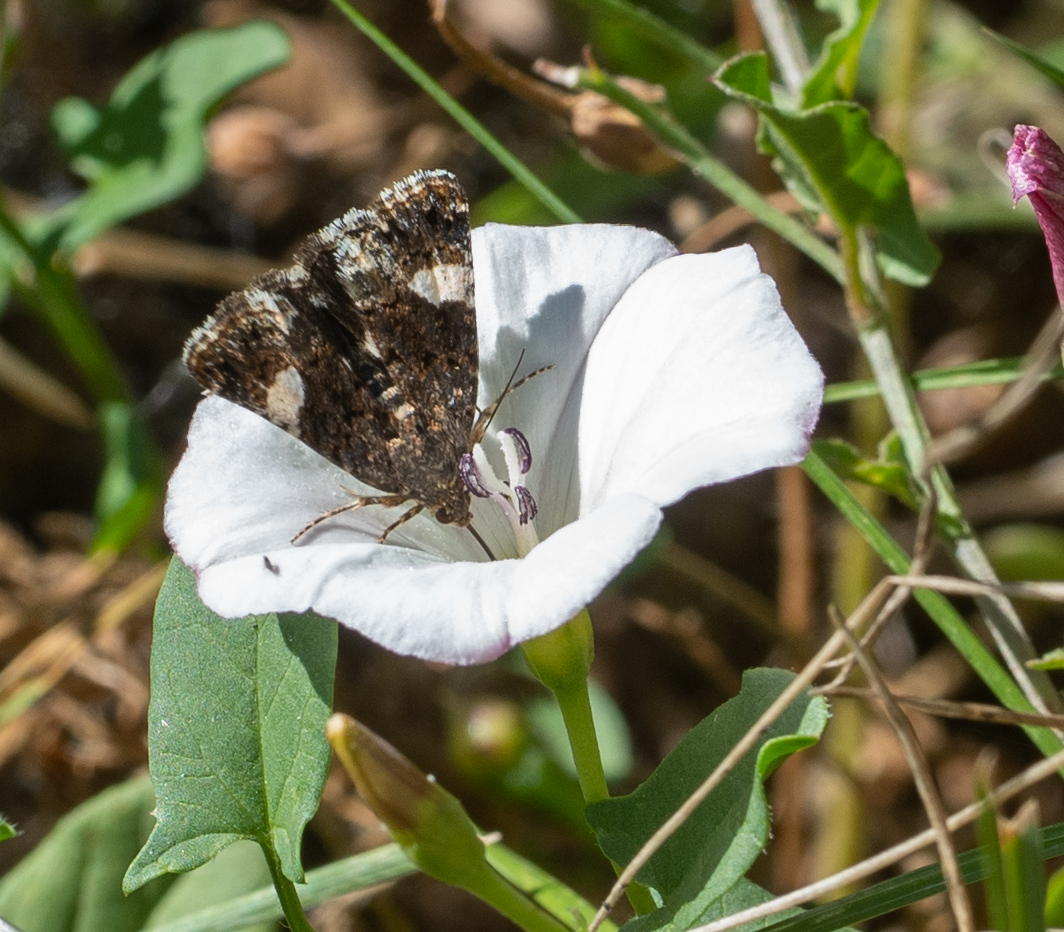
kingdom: Animalia
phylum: Arthropoda
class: Insecta
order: Lepidoptera
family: Erebidae
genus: Tyta
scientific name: Tyta luctuosa
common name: Four-spotted
